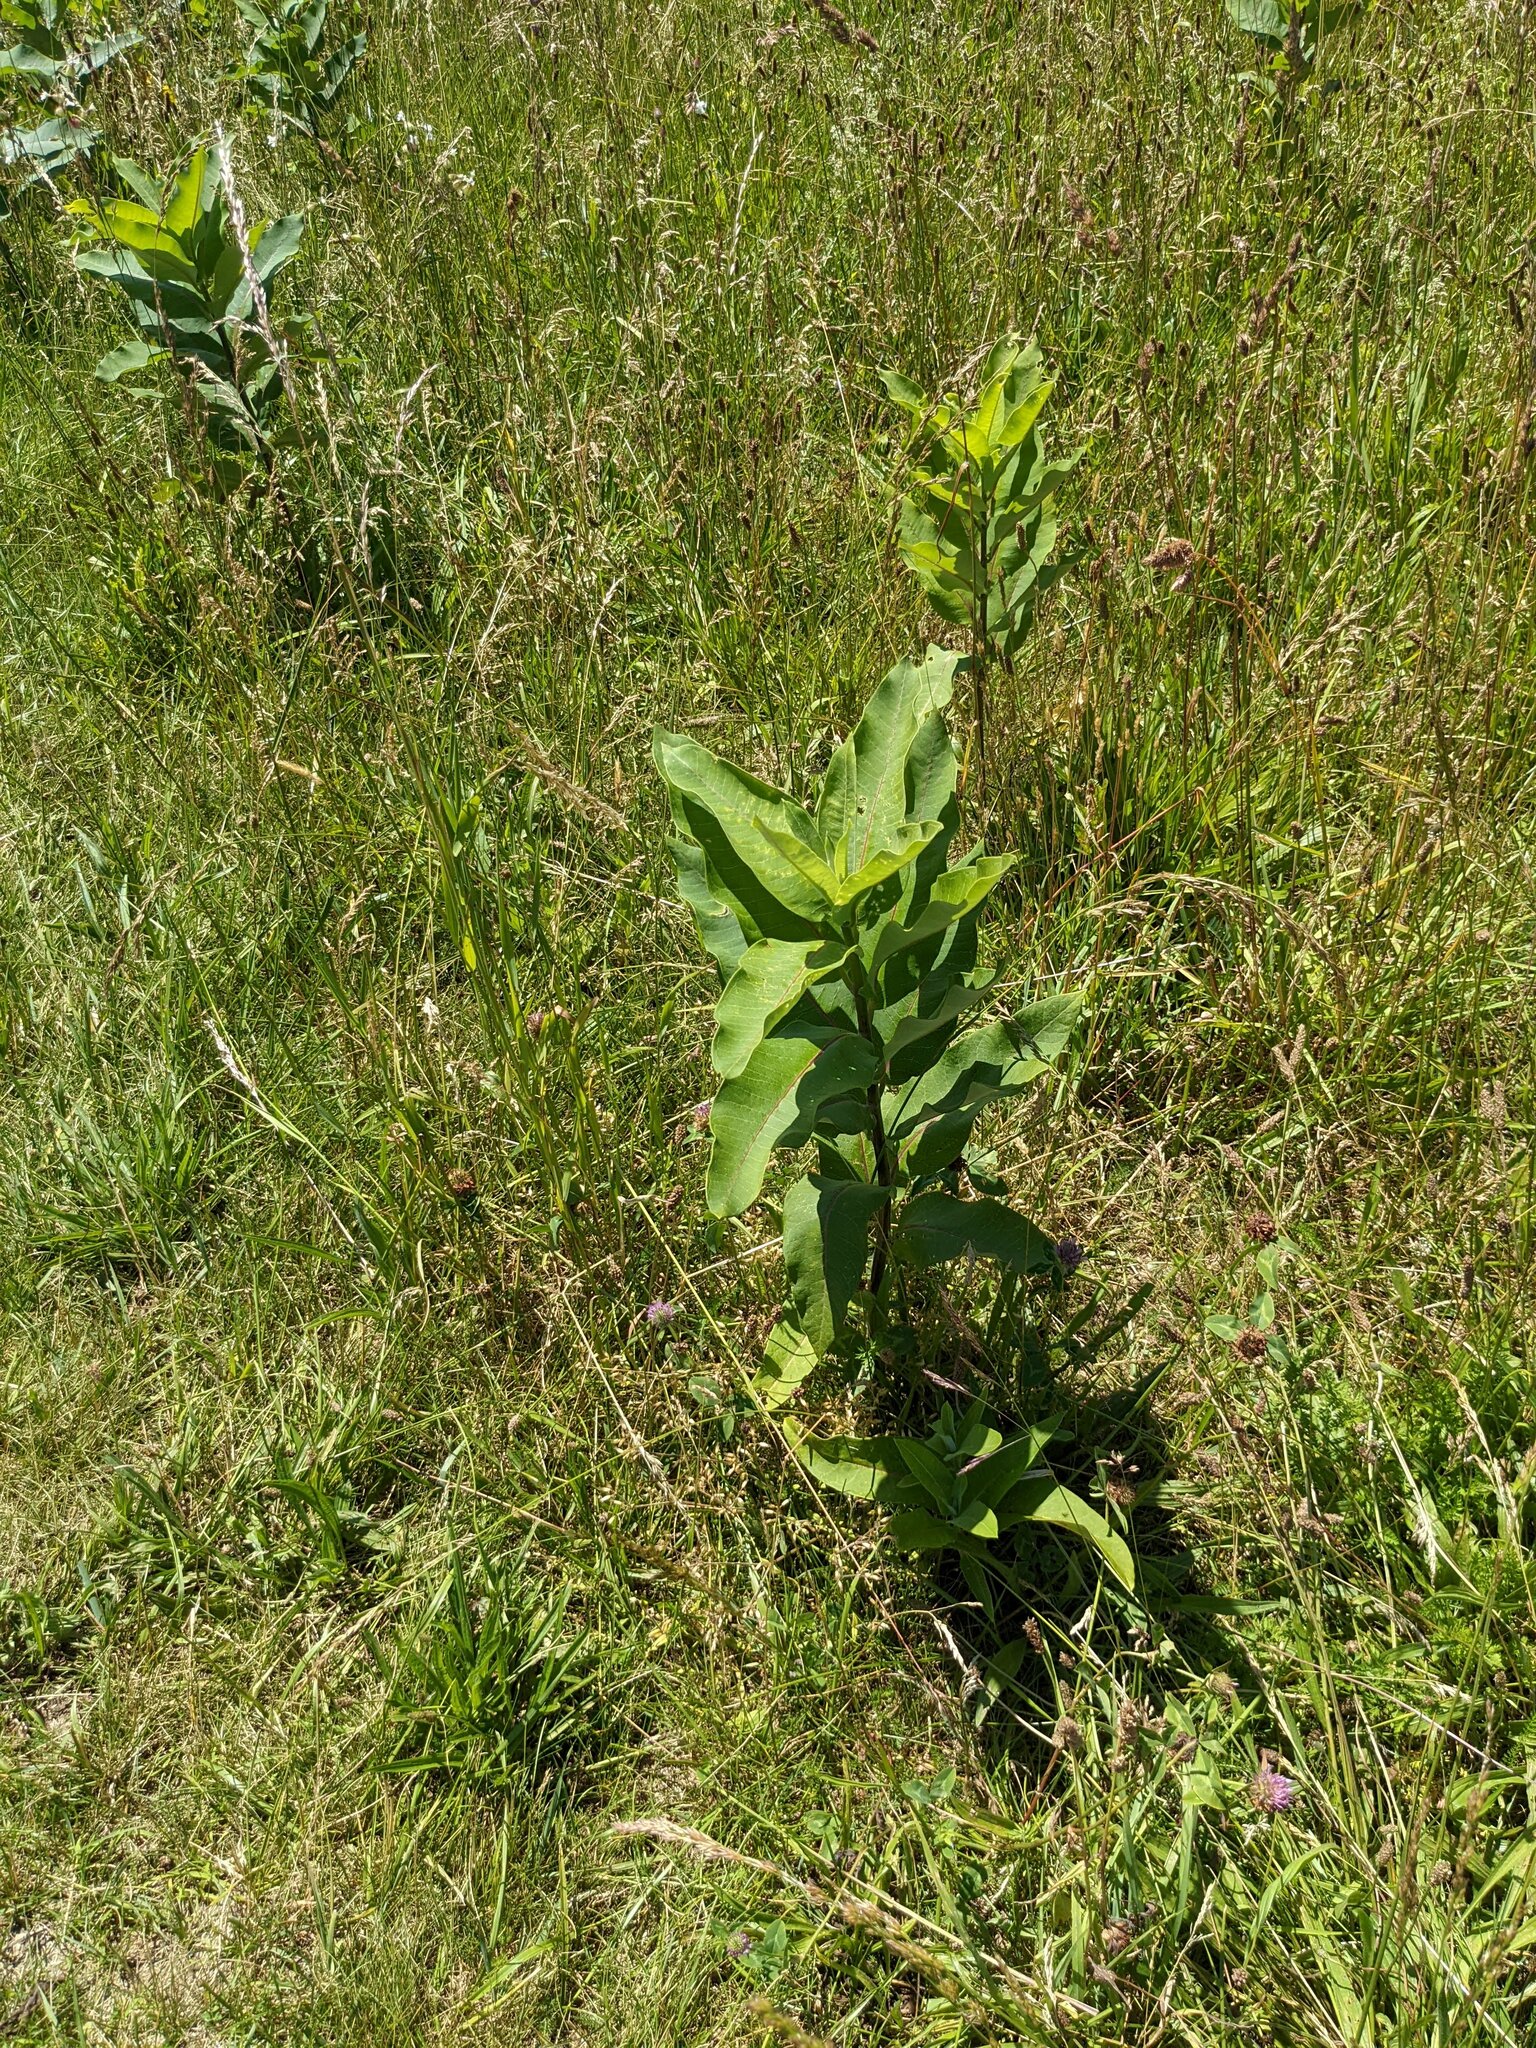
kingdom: Plantae
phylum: Tracheophyta
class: Magnoliopsida
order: Gentianales
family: Apocynaceae
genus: Asclepias
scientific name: Asclepias syriaca
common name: Common milkweed
